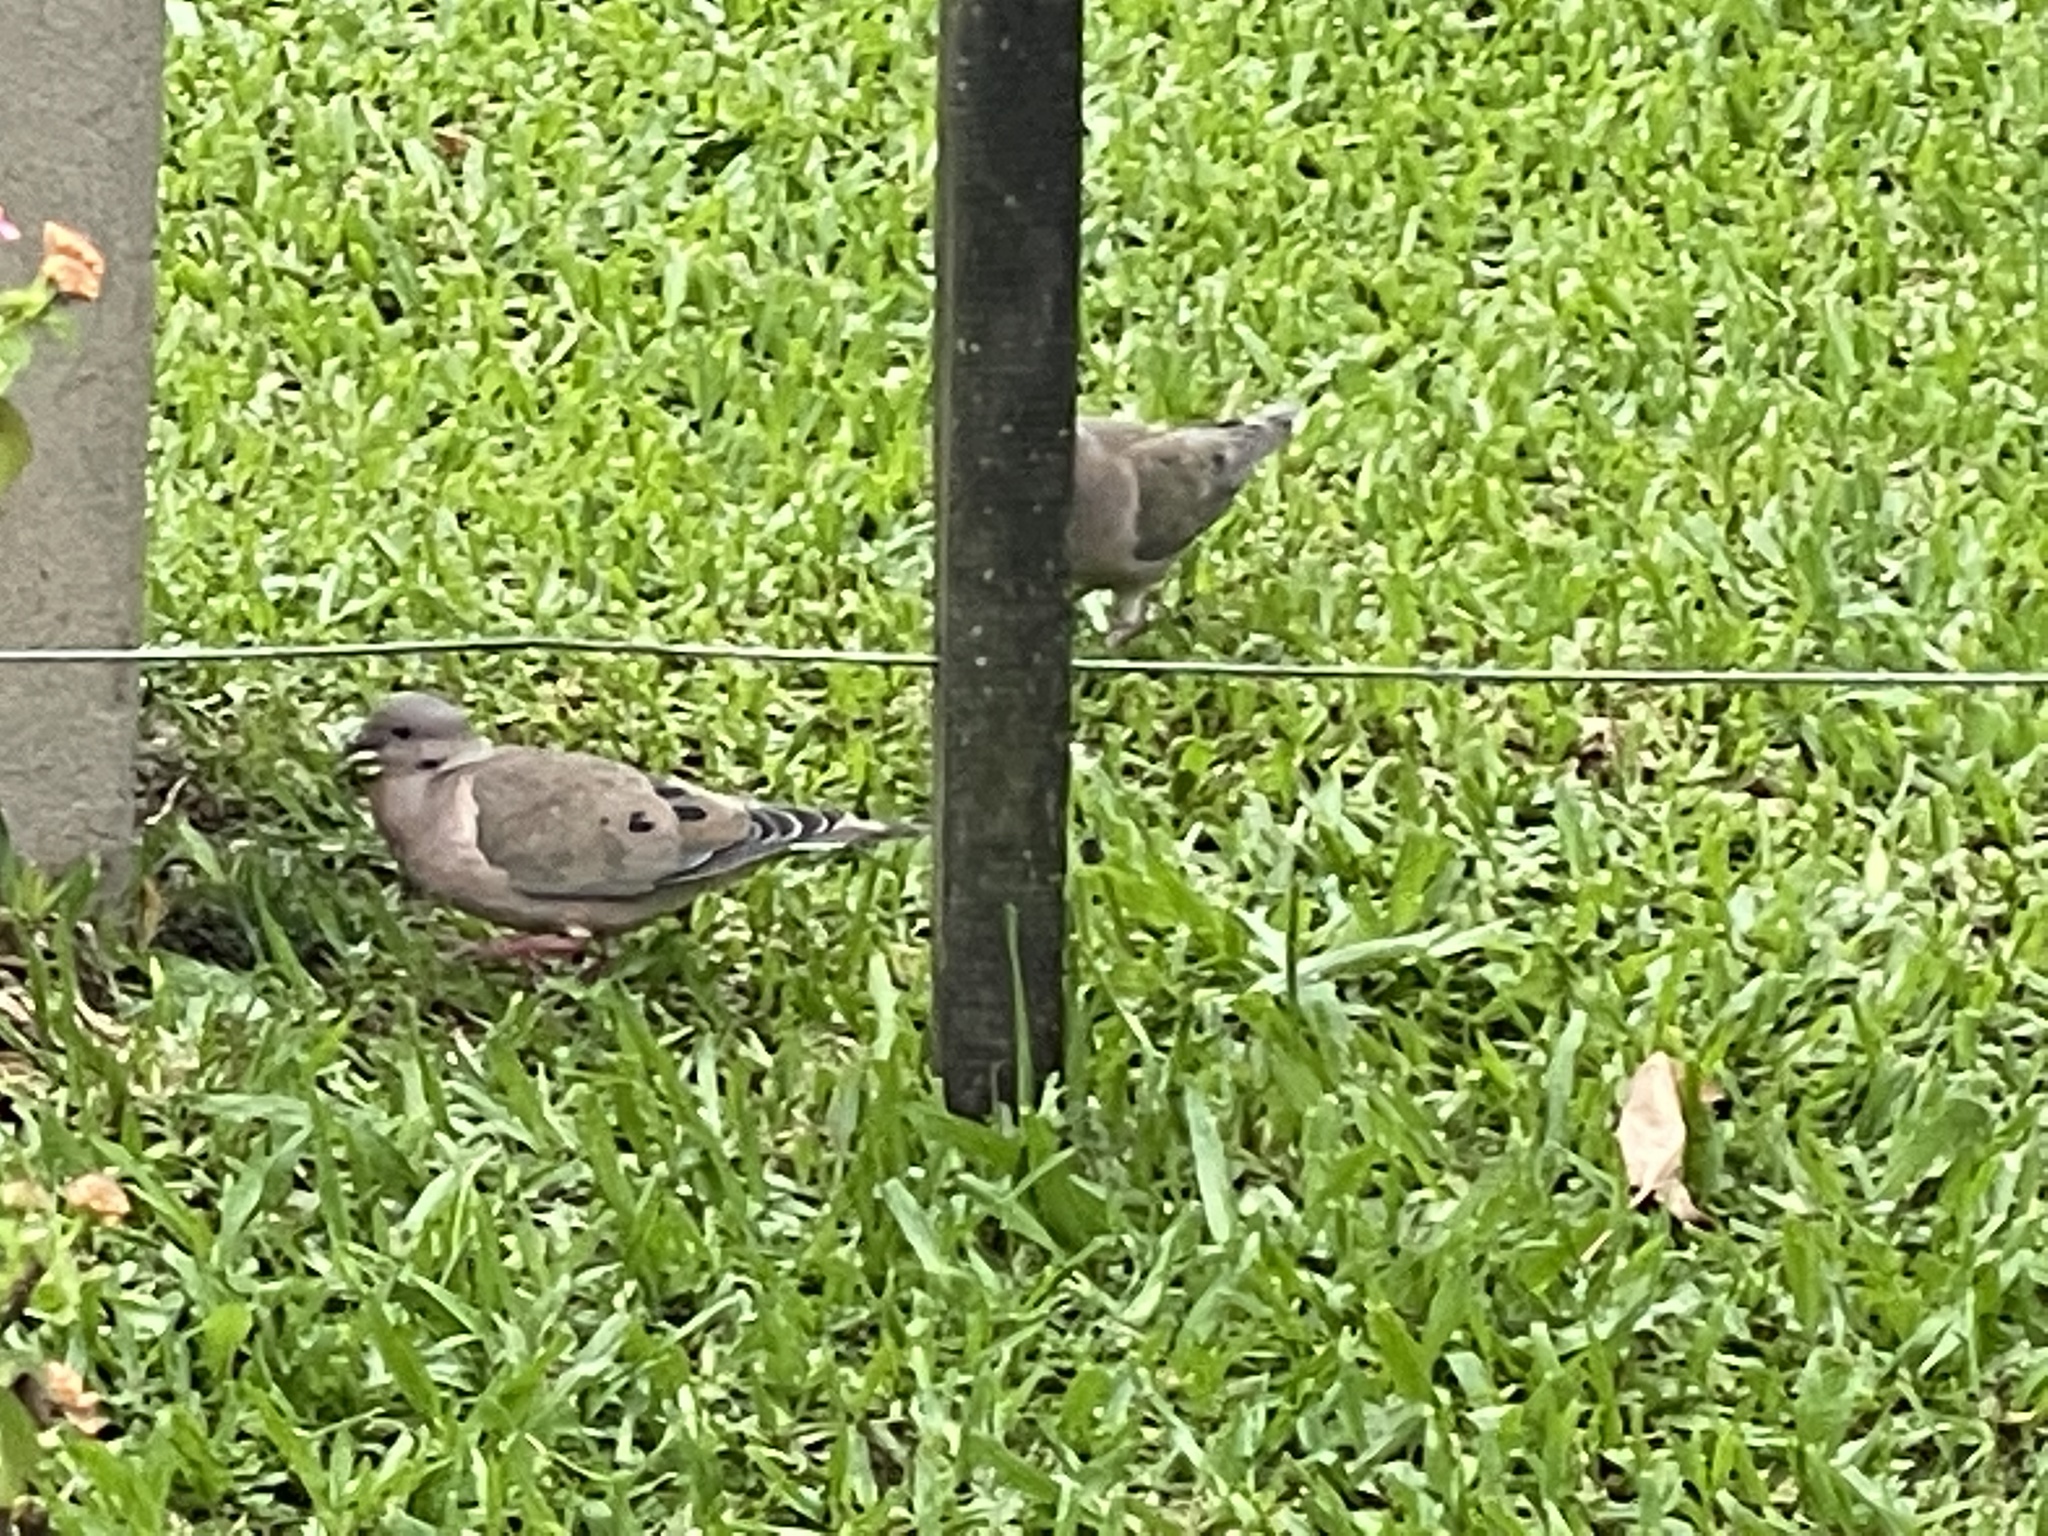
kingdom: Animalia
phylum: Chordata
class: Aves
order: Columbiformes
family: Columbidae
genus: Zenaida
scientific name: Zenaida auriculata
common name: Eared dove
